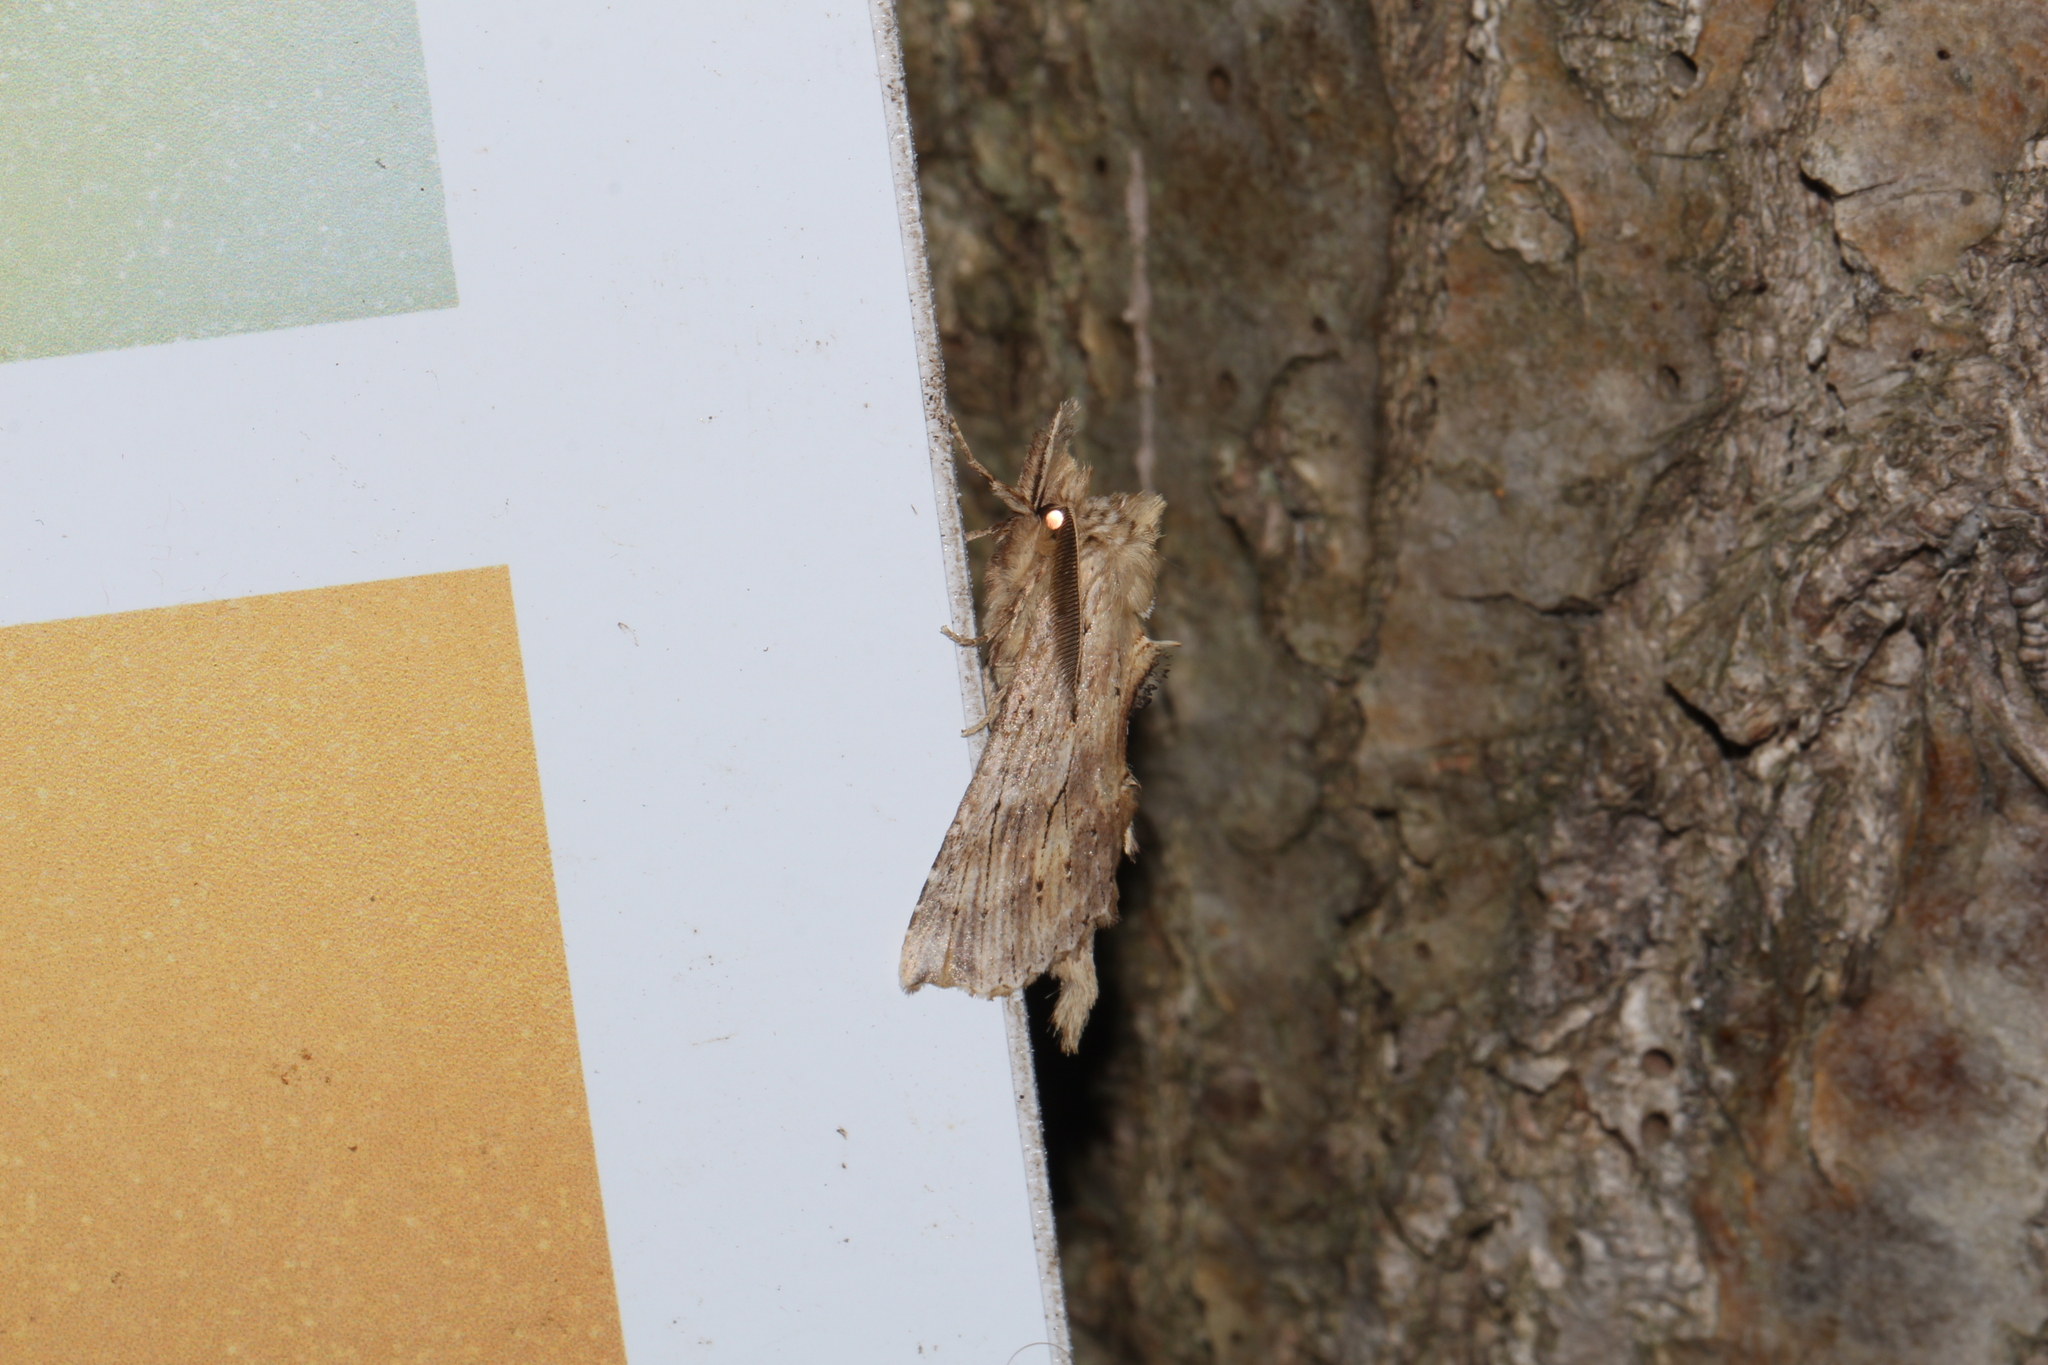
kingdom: Animalia
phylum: Arthropoda
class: Insecta
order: Lepidoptera
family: Notodontidae
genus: Pterostoma
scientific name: Pterostoma palpina
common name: Pale prominent
